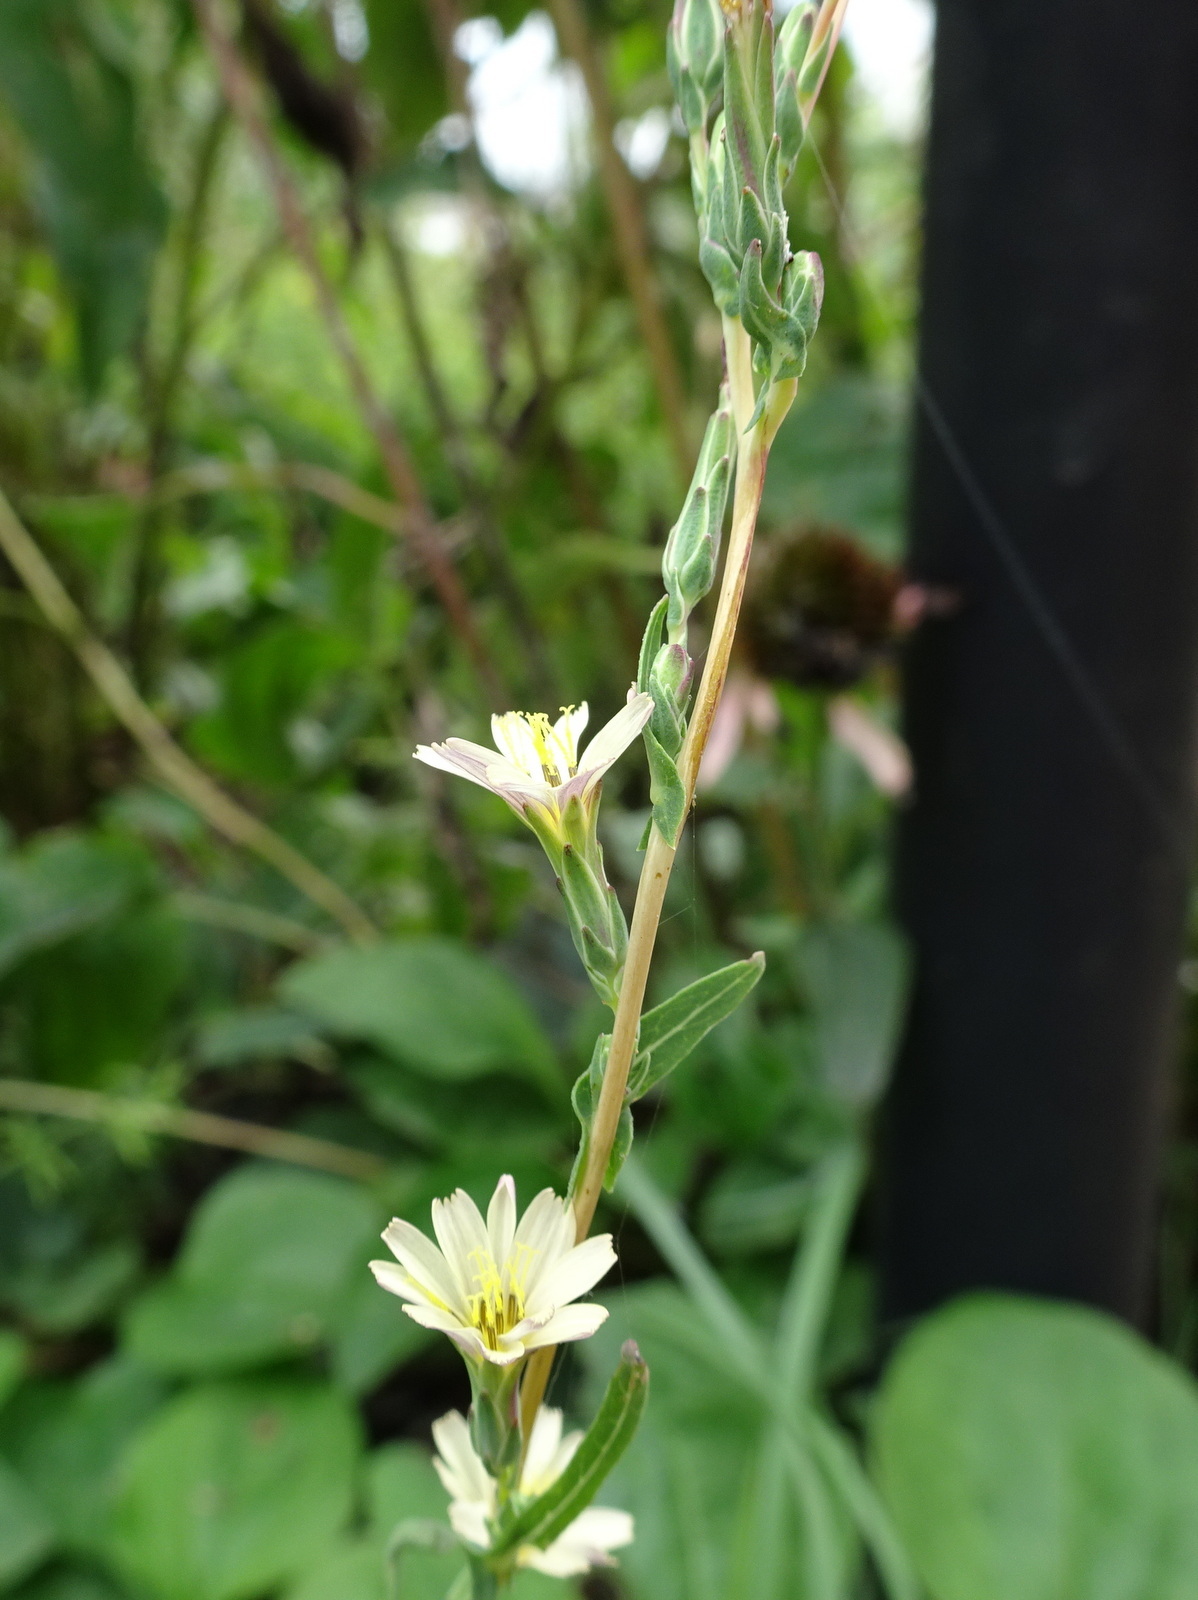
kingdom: Plantae
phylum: Tracheophyta
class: Magnoliopsida
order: Asterales
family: Asteraceae
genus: Lactuca
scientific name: Lactuca saligna
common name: Wild lettuce
